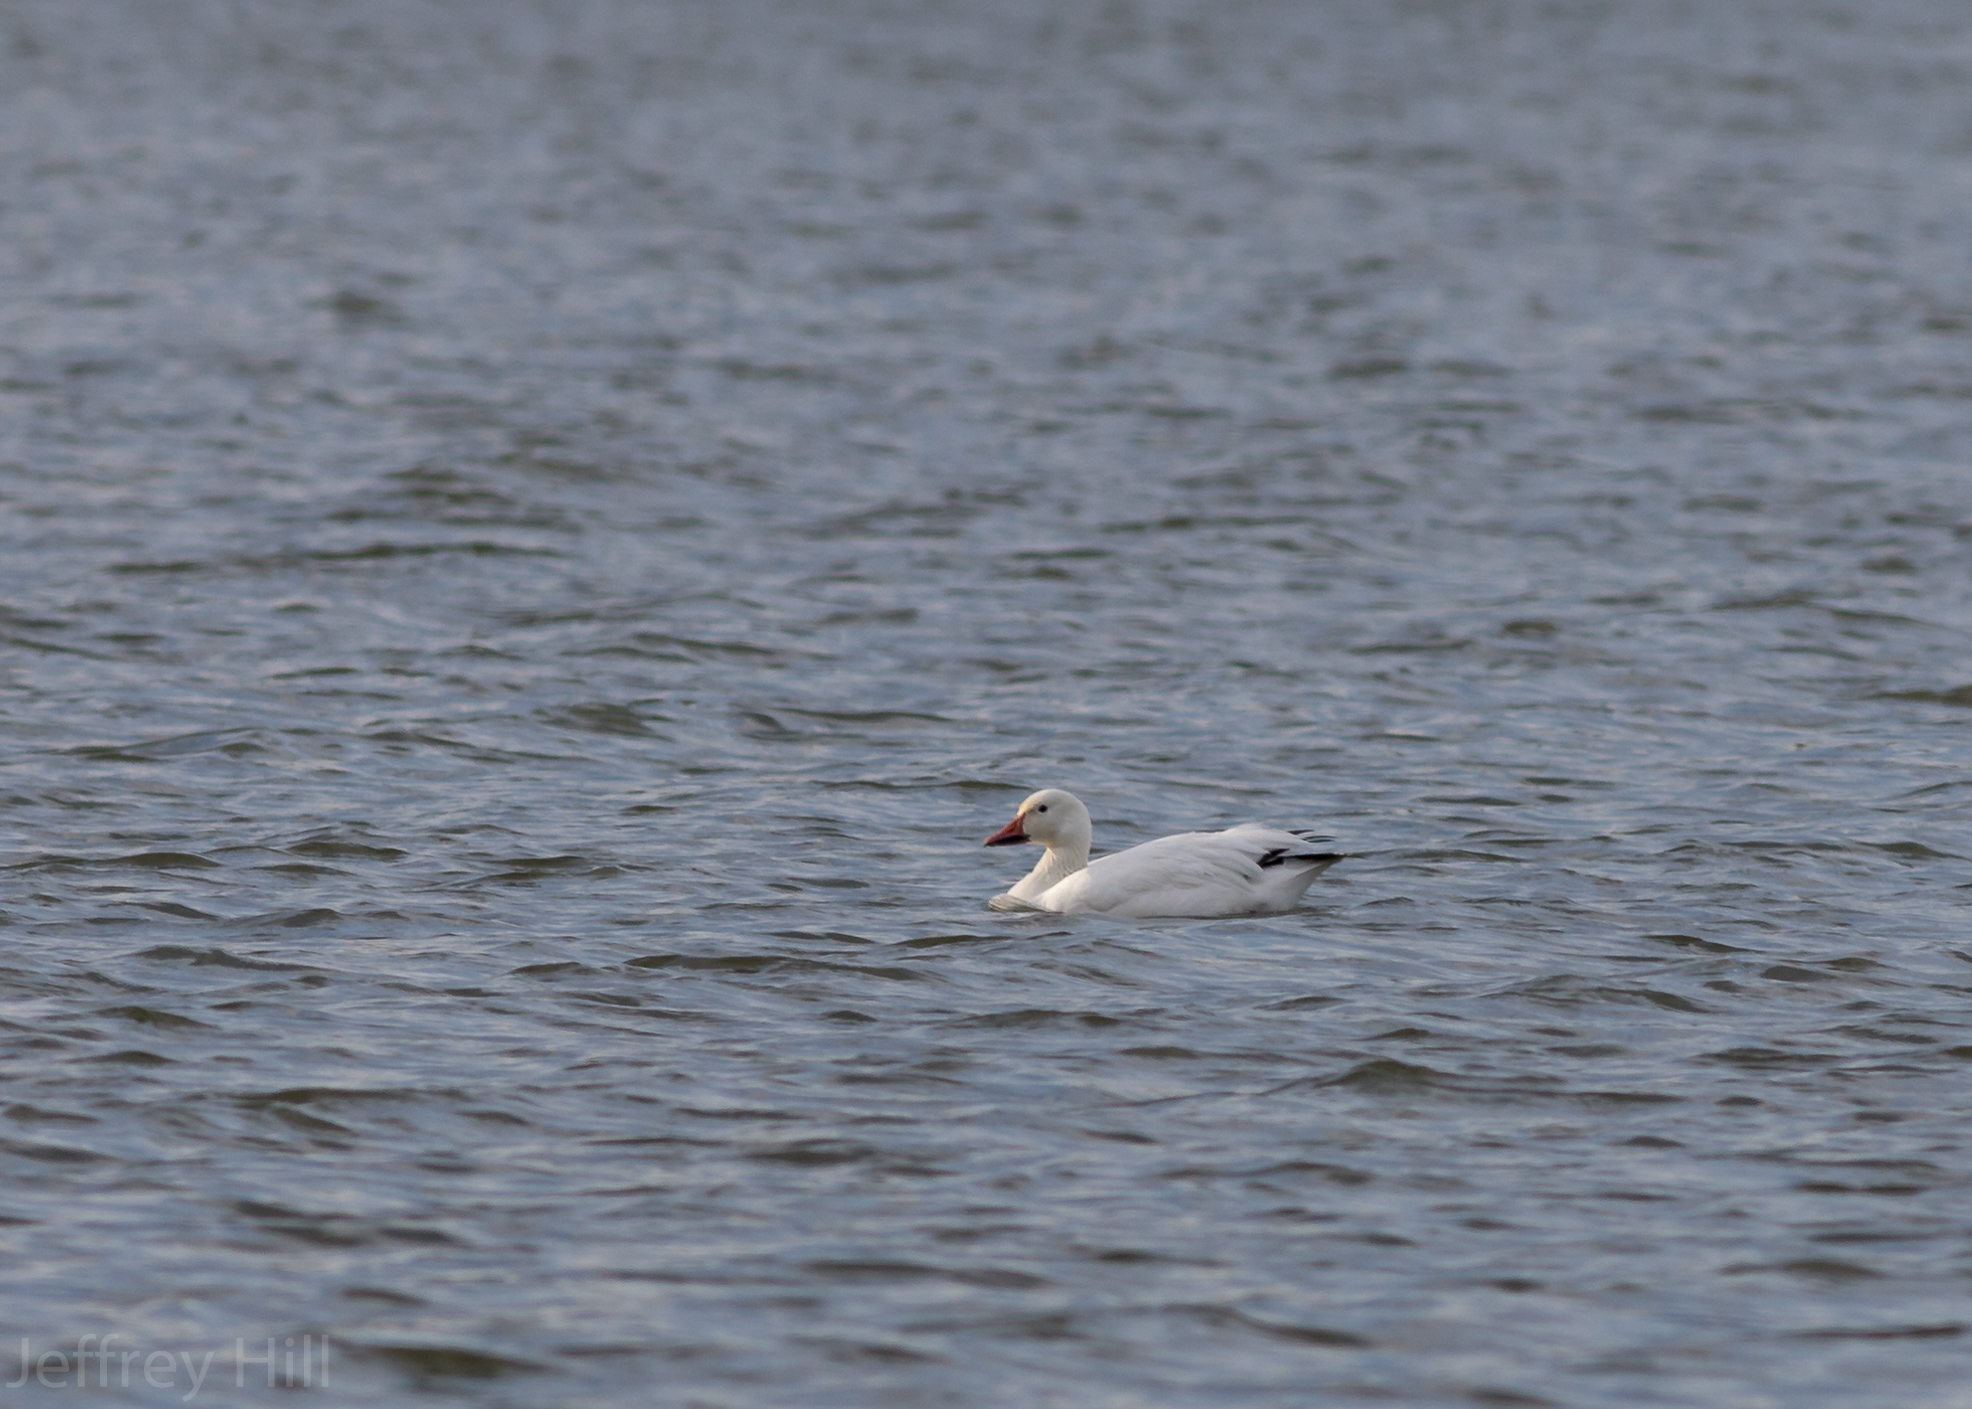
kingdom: Animalia
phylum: Chordata
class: Aves
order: Anseriformes
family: Anatidae
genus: Anser
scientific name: Anser caerulescens
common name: Snow goose
